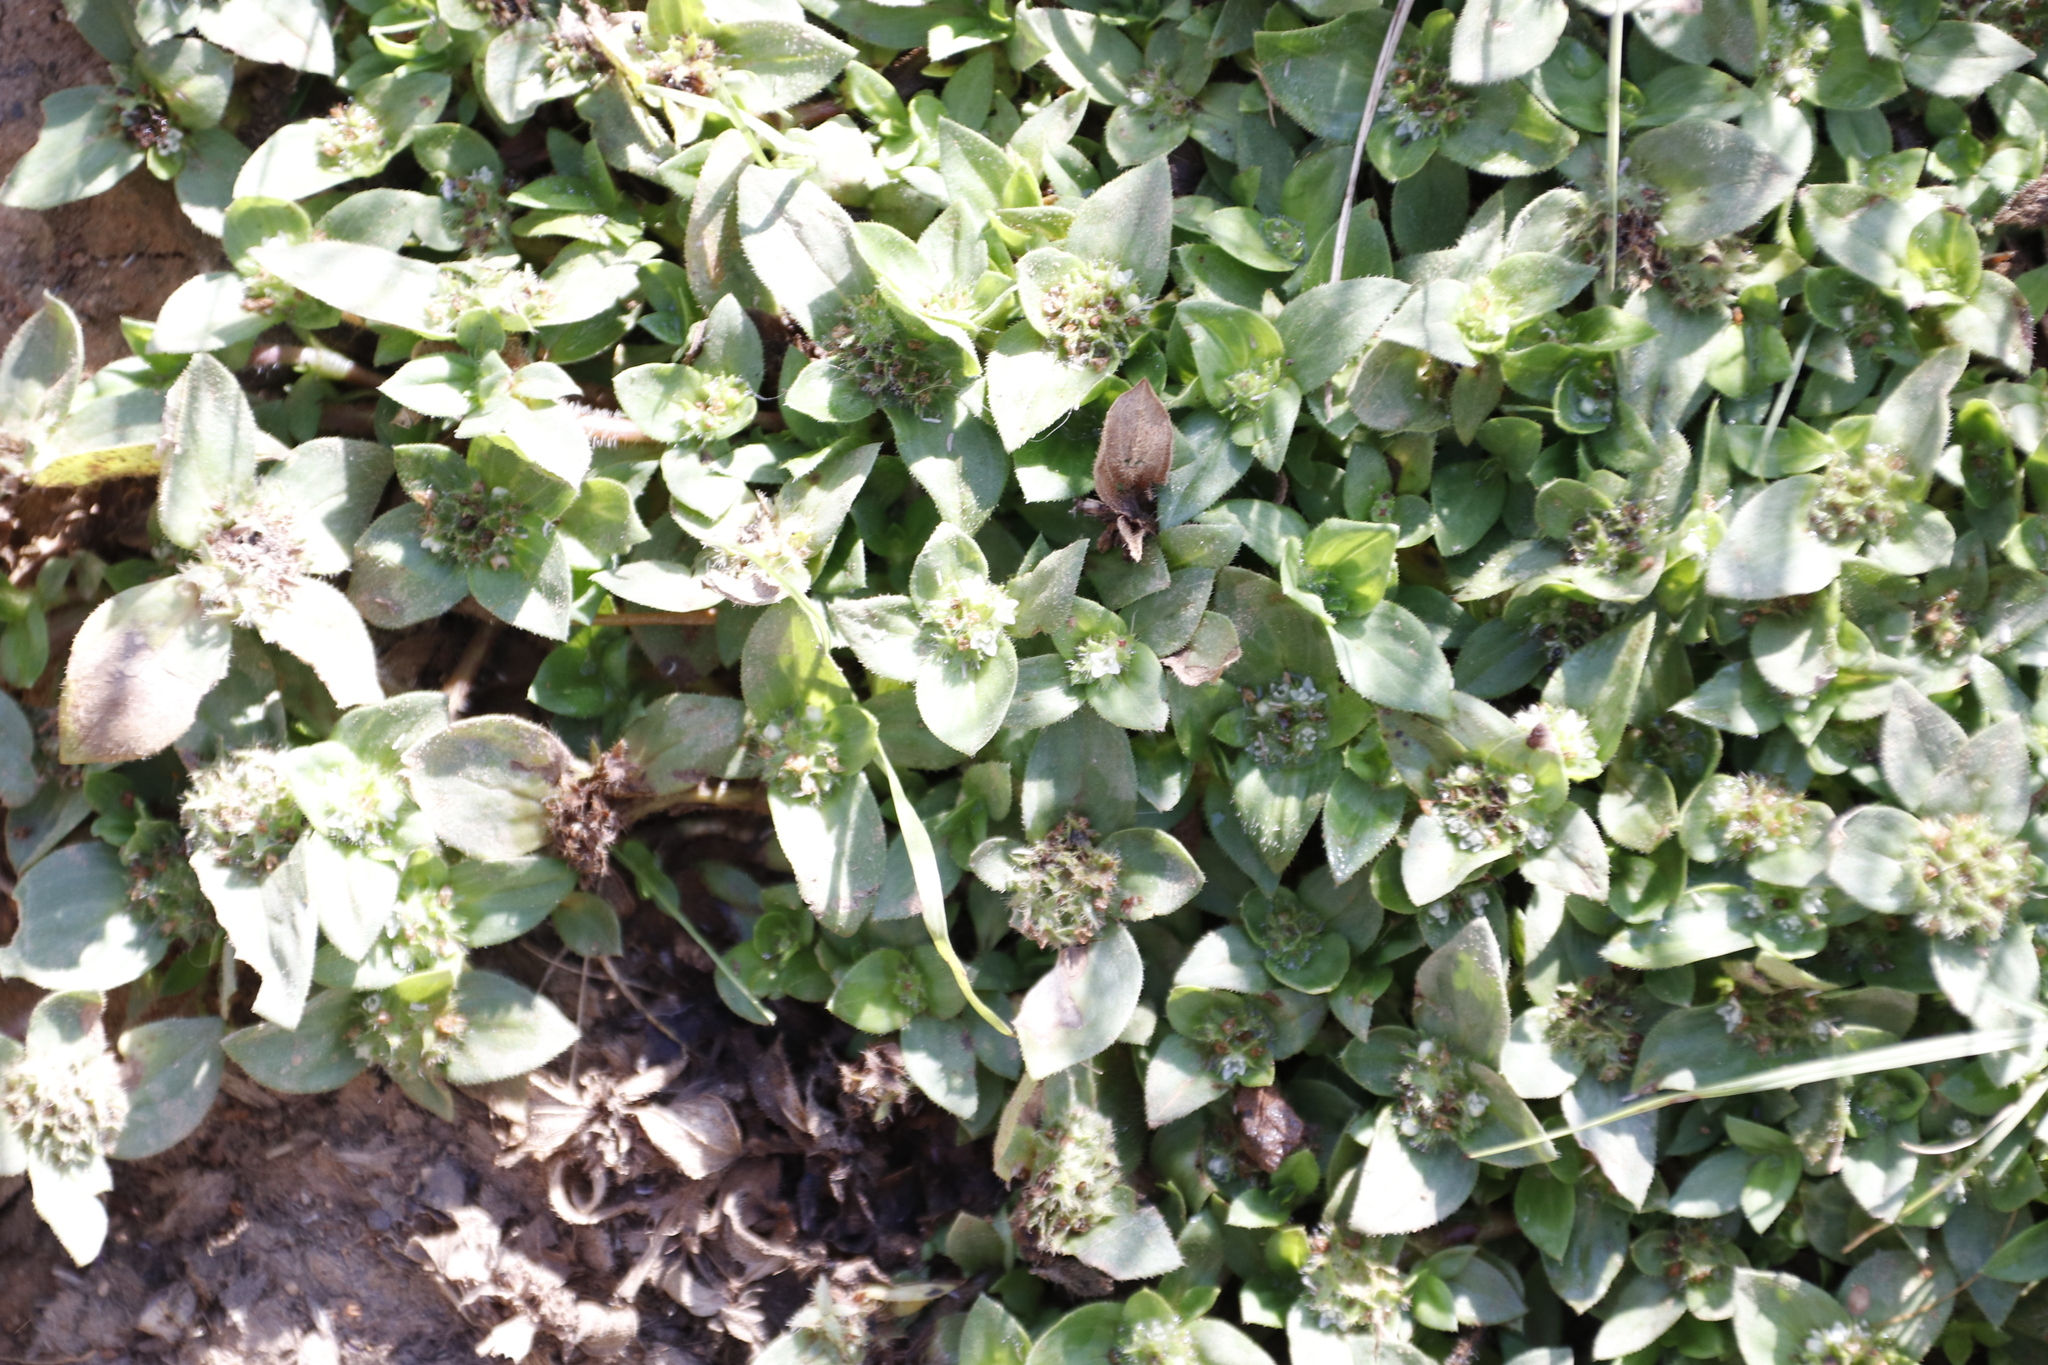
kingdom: Plantae
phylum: Tracheophyta
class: Magnoliopsida
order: Gentianales
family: Rubiaceae
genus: Richardia
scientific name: Richardia brasiliensis
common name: Tropical mexican clover
